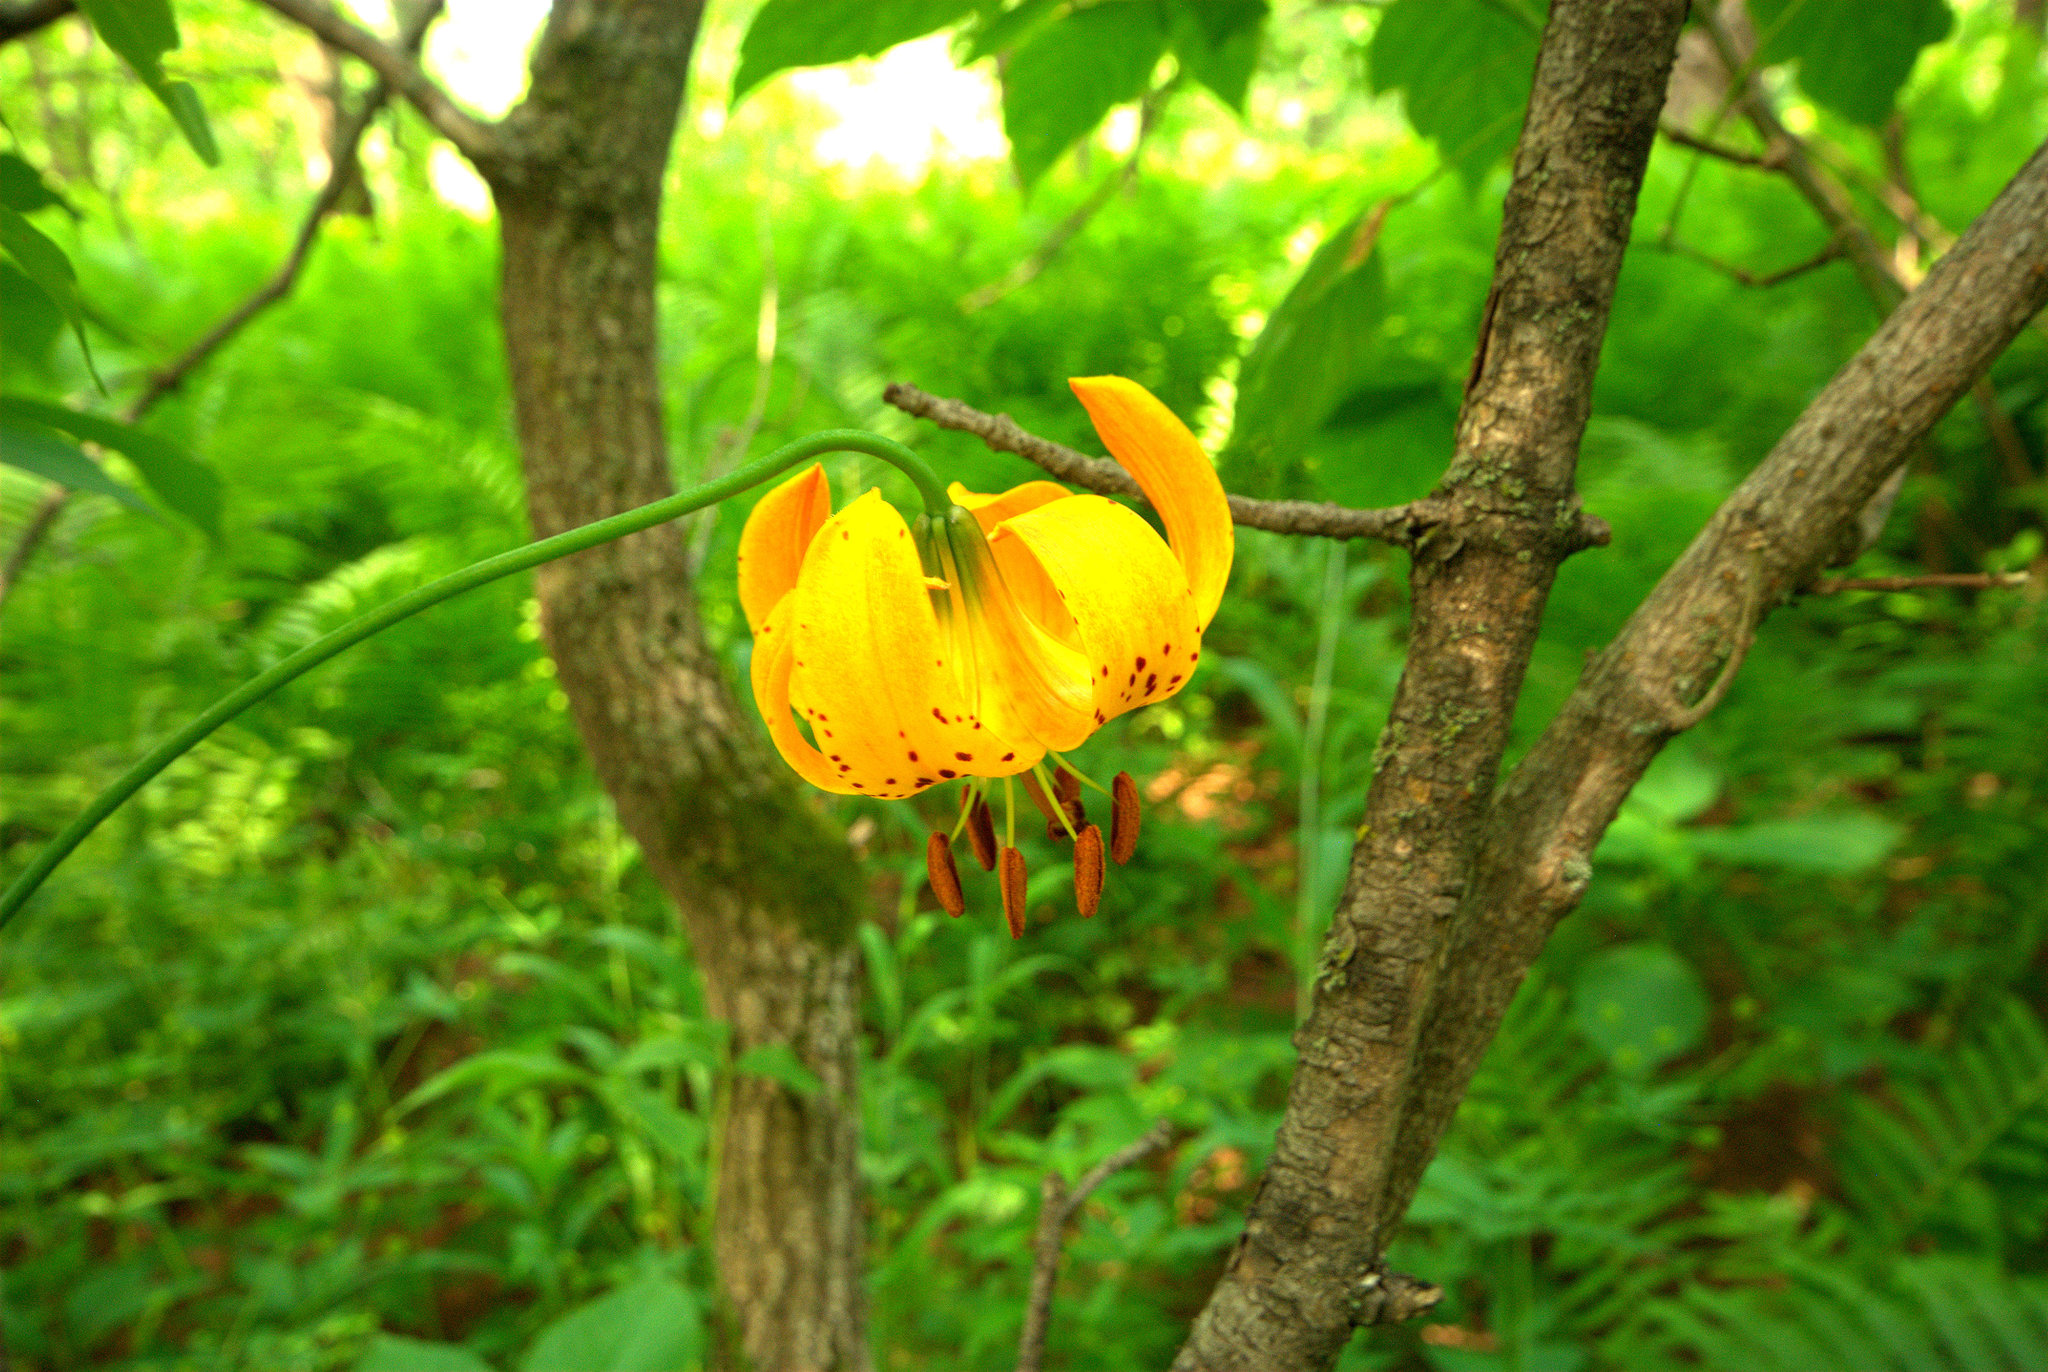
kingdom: Plantae
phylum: Tracheophyta
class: Liliopsida
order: Liliales
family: Liliaceae
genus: Lilium
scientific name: Lilium michiganense
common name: Michigan lily
